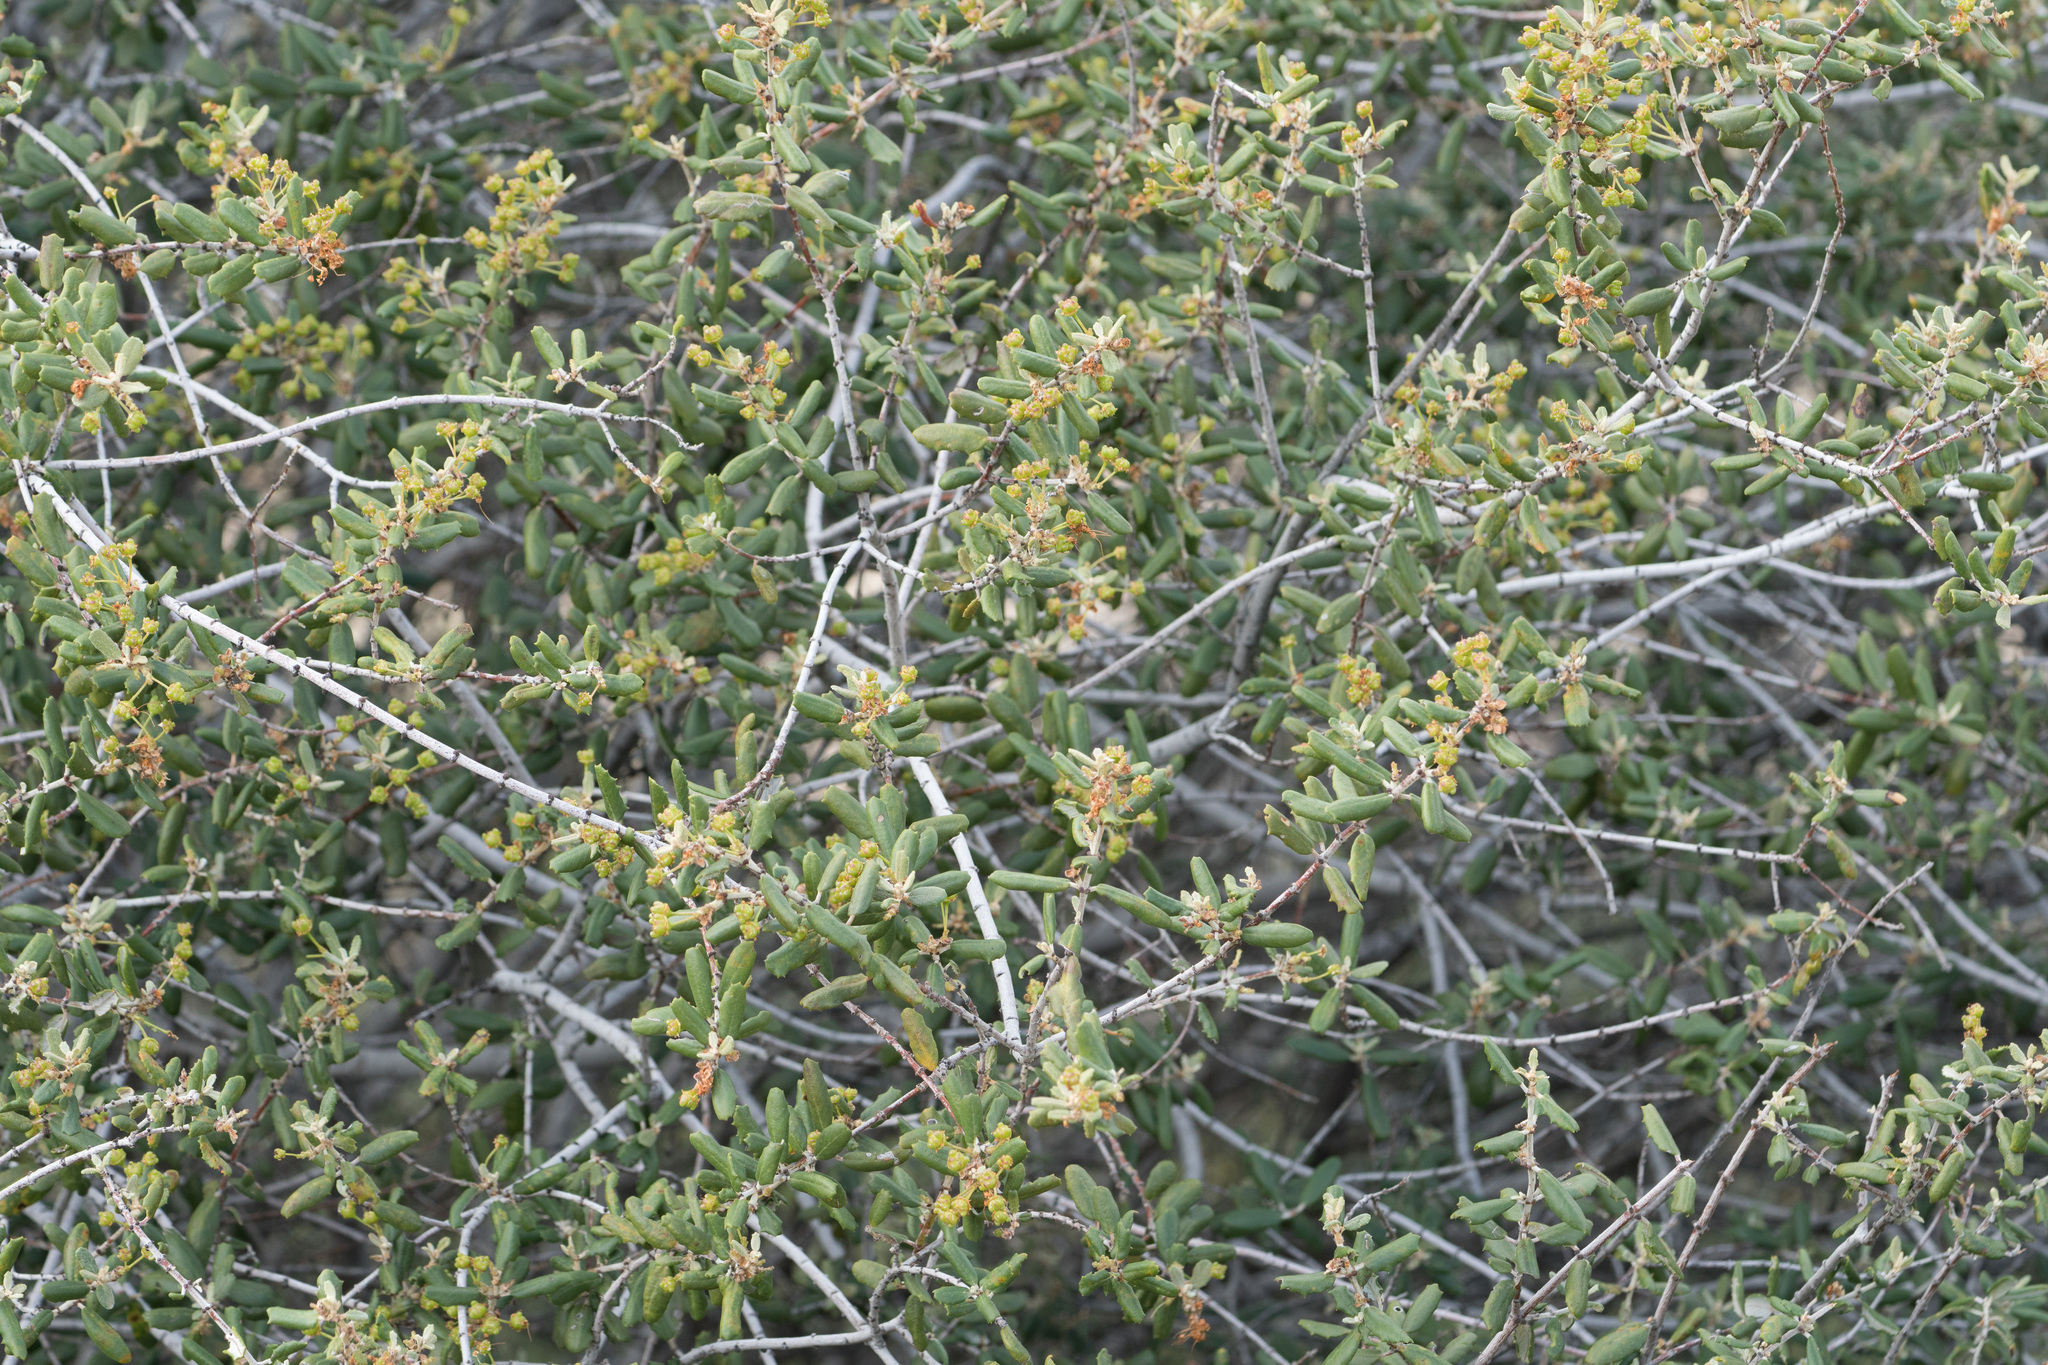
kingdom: Plantae
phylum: Tracheophyta
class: Magnoliopsida
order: Rosales
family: Rhamnaceae
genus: Ceanothus
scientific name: Ceanothus crassifolius
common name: Hoaryleaf ceanothus
